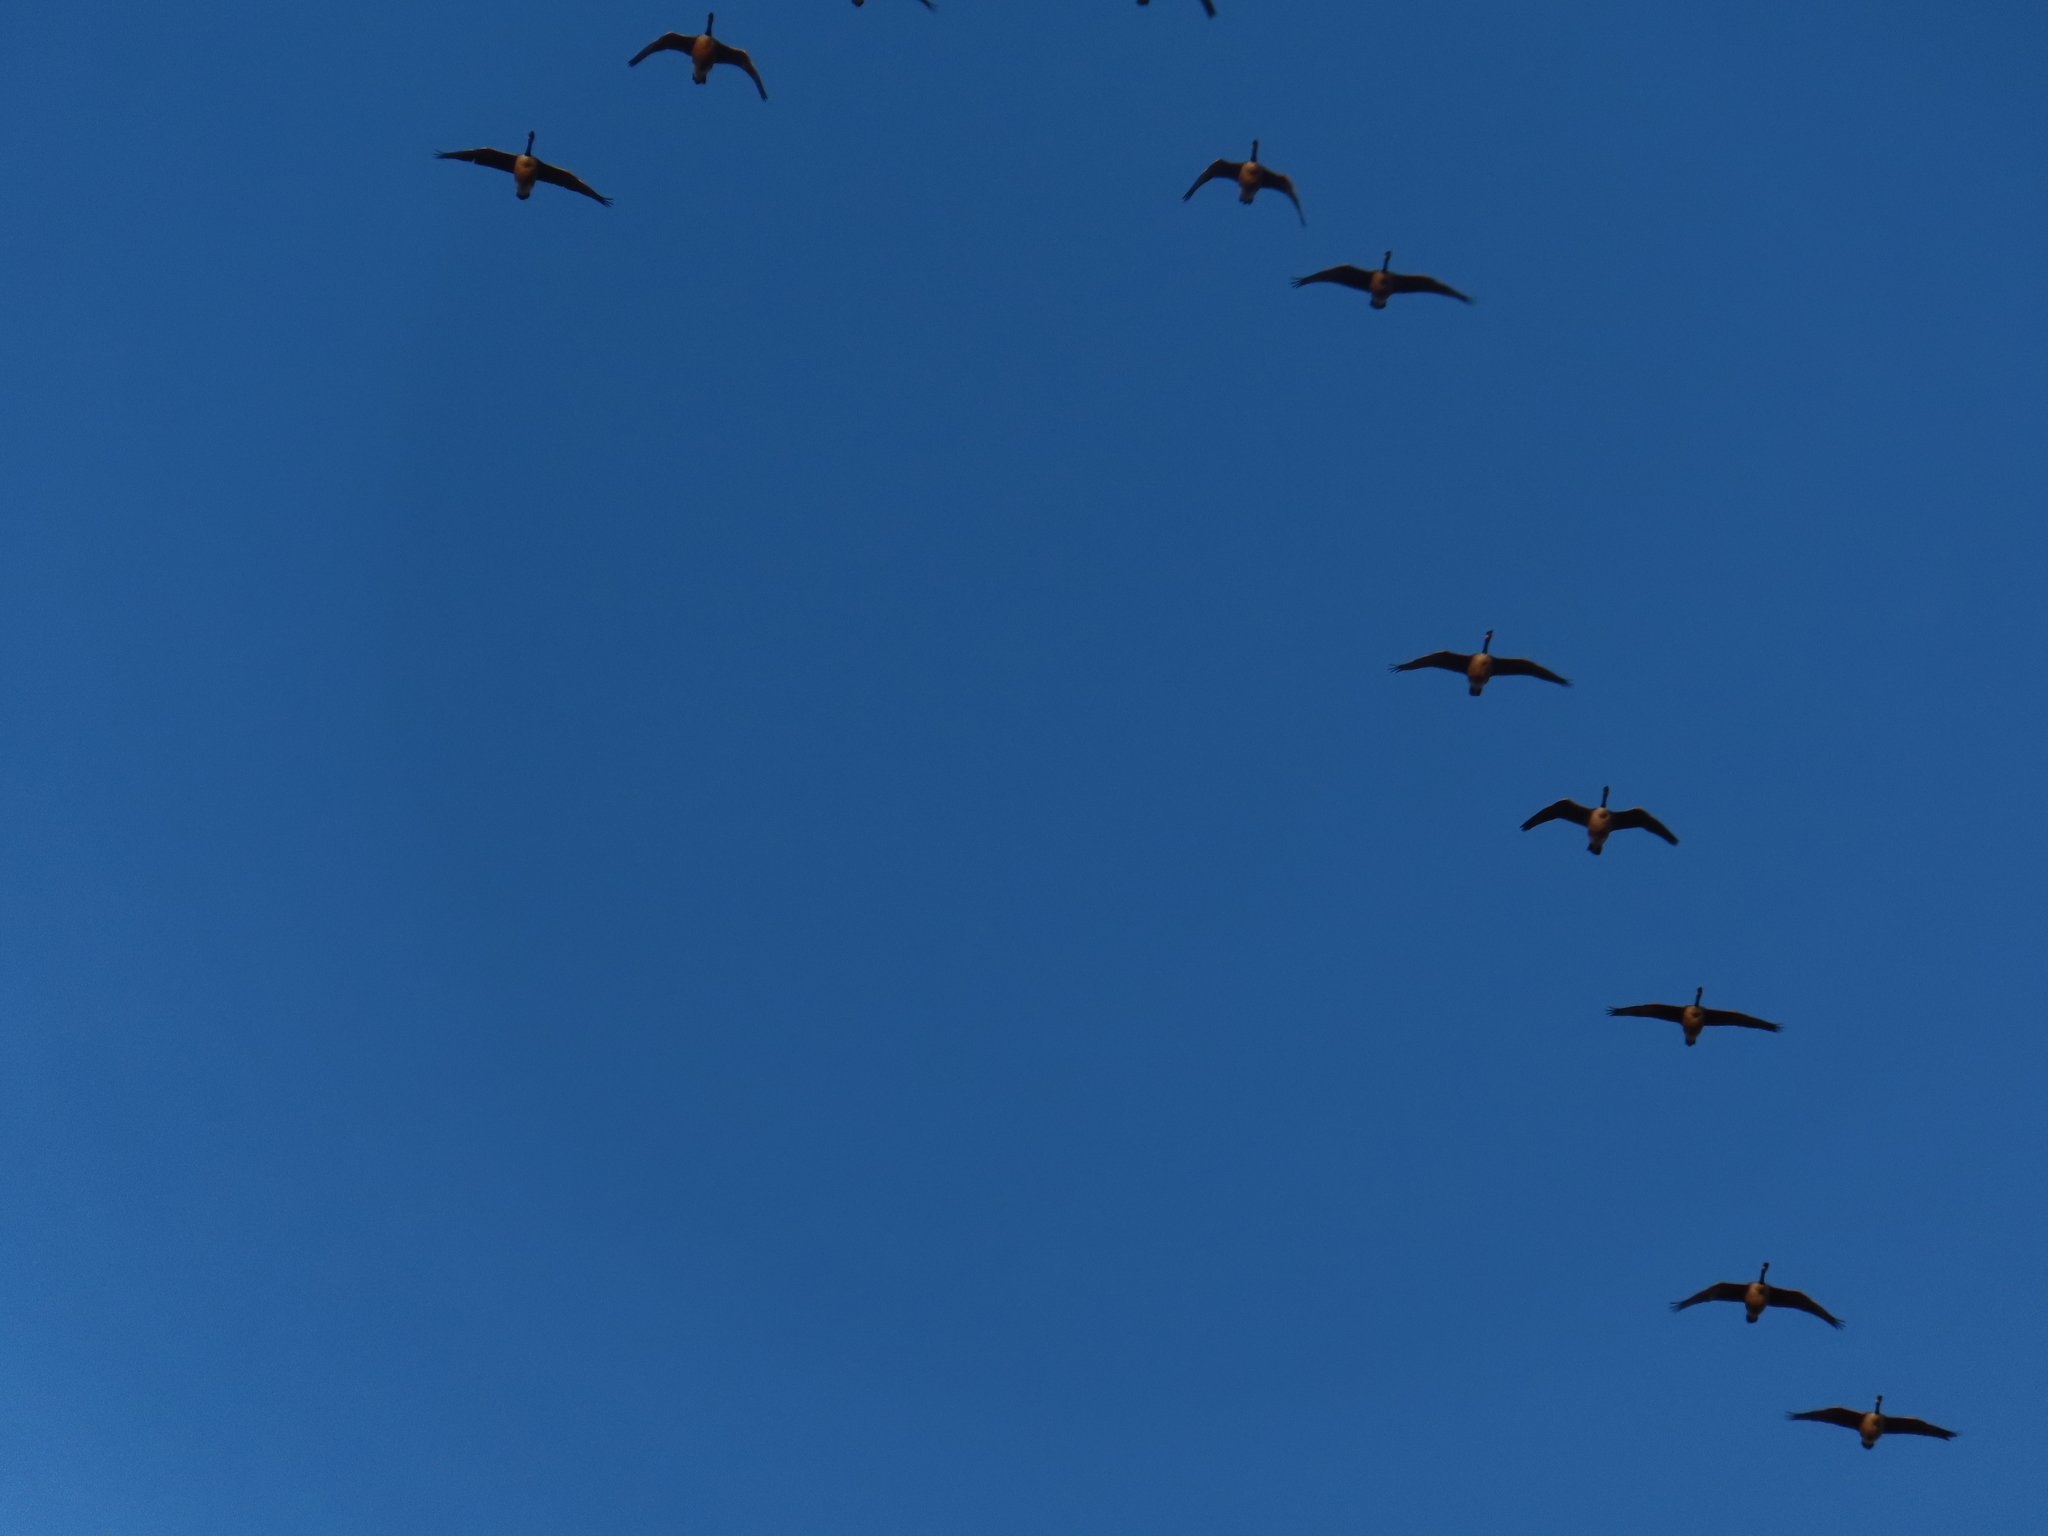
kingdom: Animalia
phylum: Chordata
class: Aves
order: Anseriformes
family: Anatidae
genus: Branta
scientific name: Branta canadensis
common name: Canada goose
